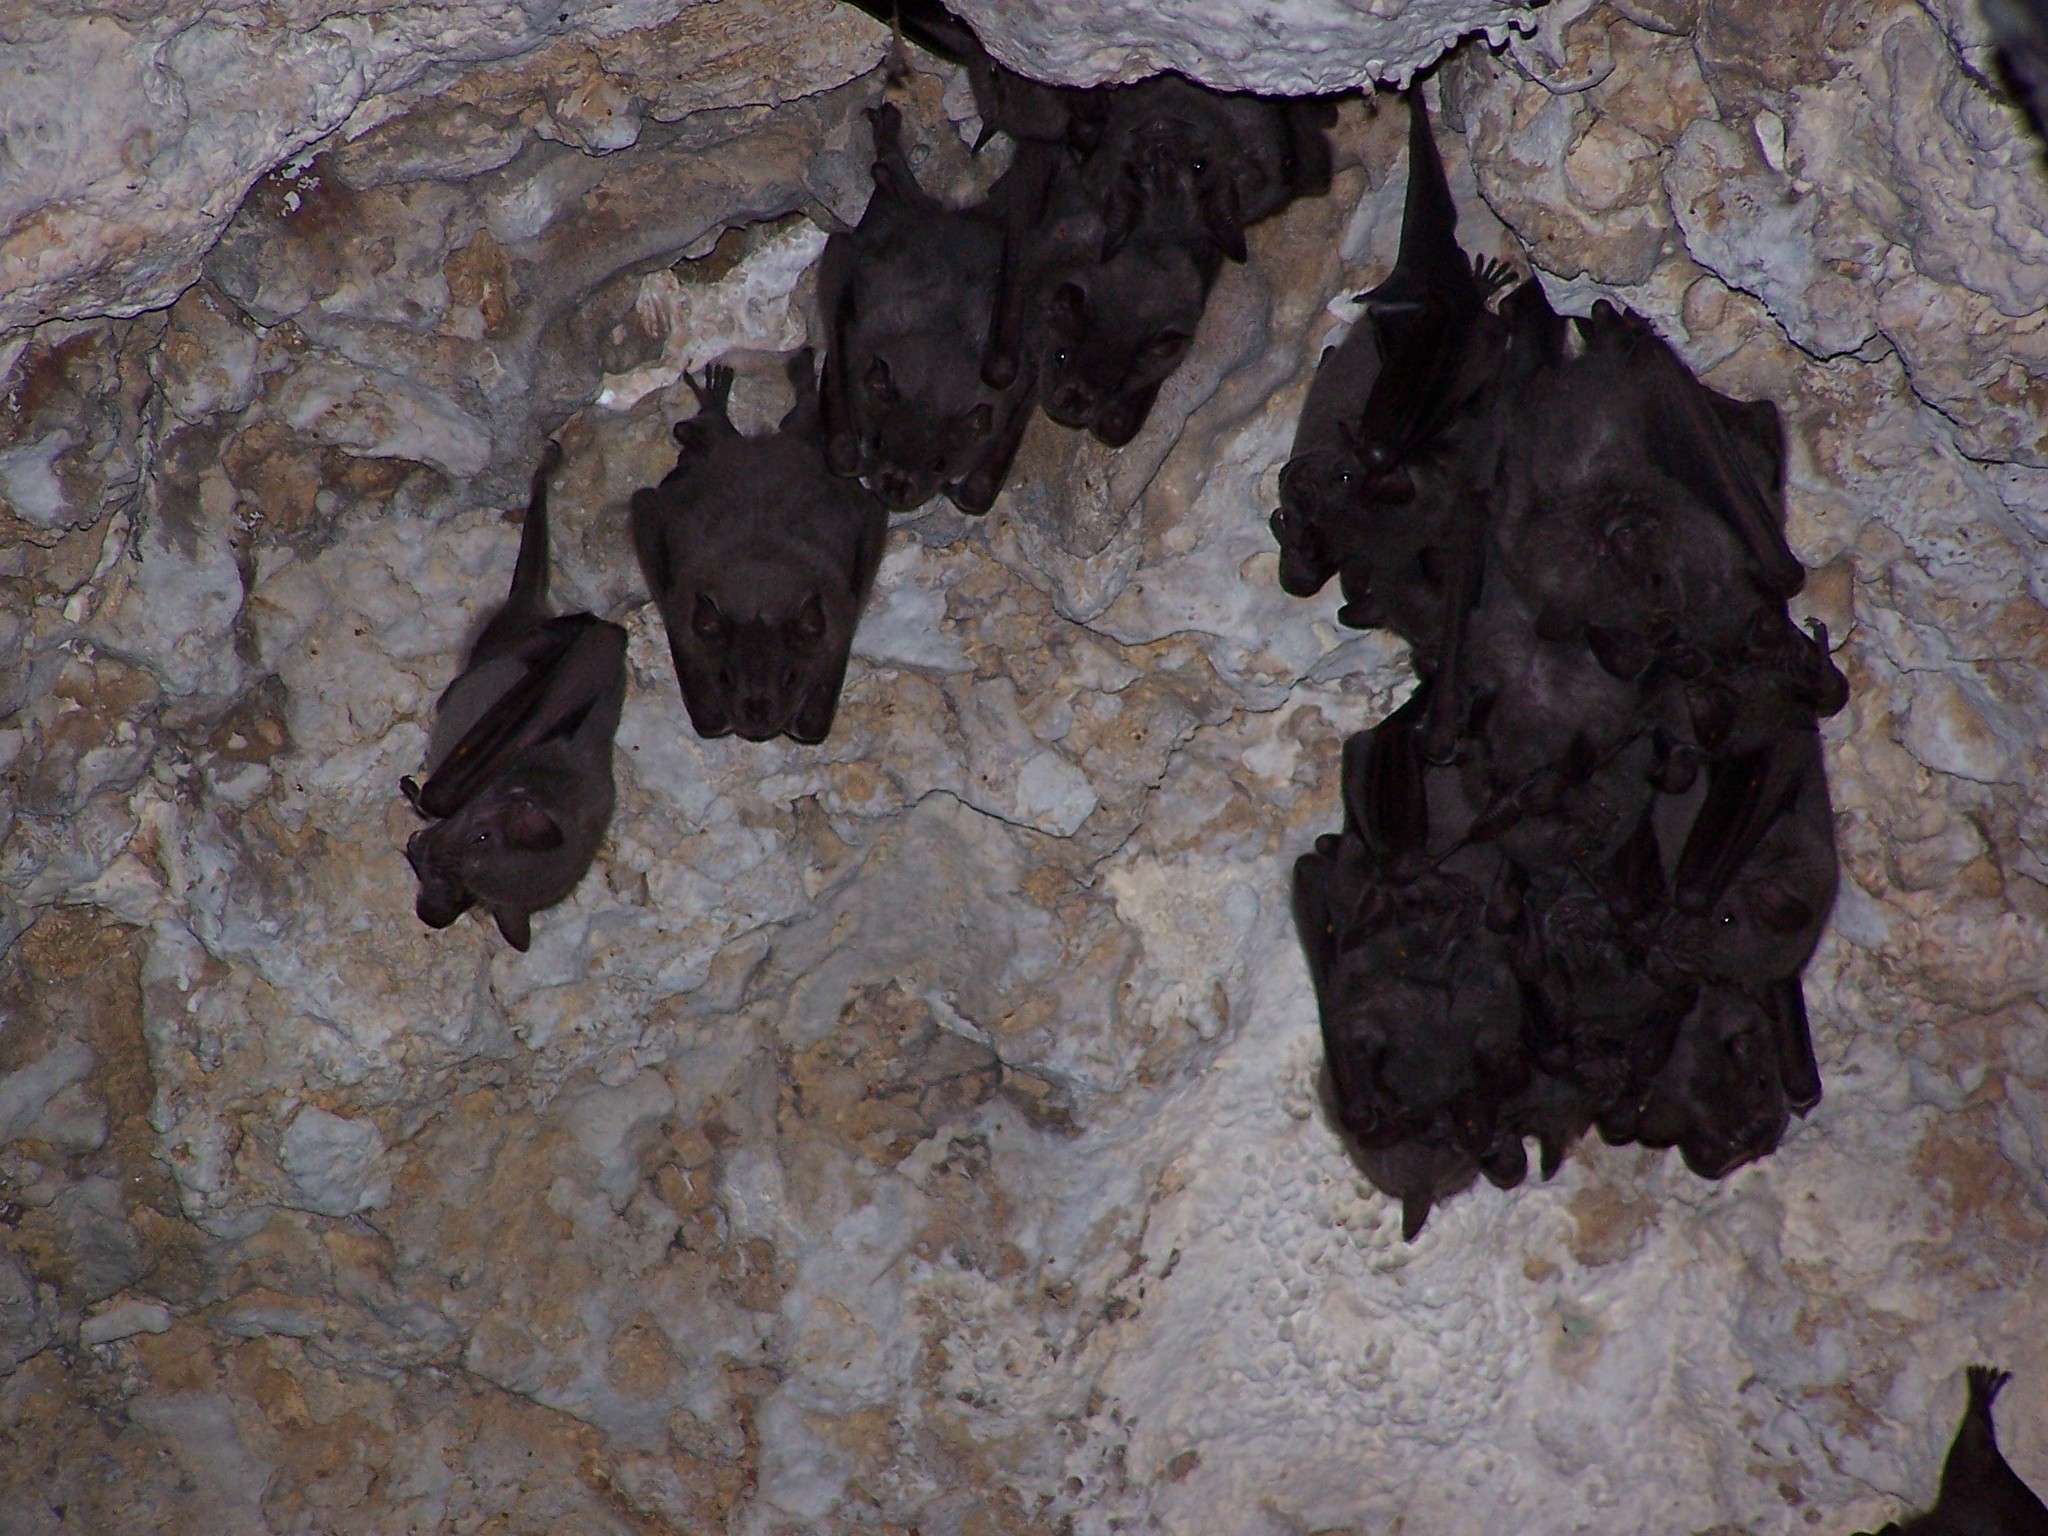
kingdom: Animalia
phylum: Chordata
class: Mammalia
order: Chiroptera
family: Phyllostomidae
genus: Artibeus
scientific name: Artibeus jamaicensis
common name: Jamaican fruit-eating bat
